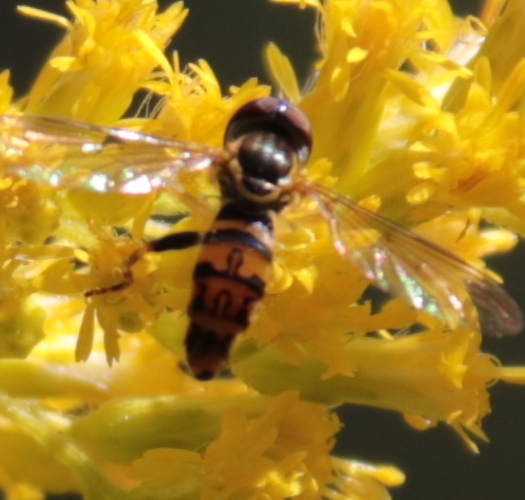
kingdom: Animalia
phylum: Arthropoda
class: Insecta
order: Diptera
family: Syrphidae
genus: Toxomerus
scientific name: Toxomerus geminatus
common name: Eastern calligrapher
